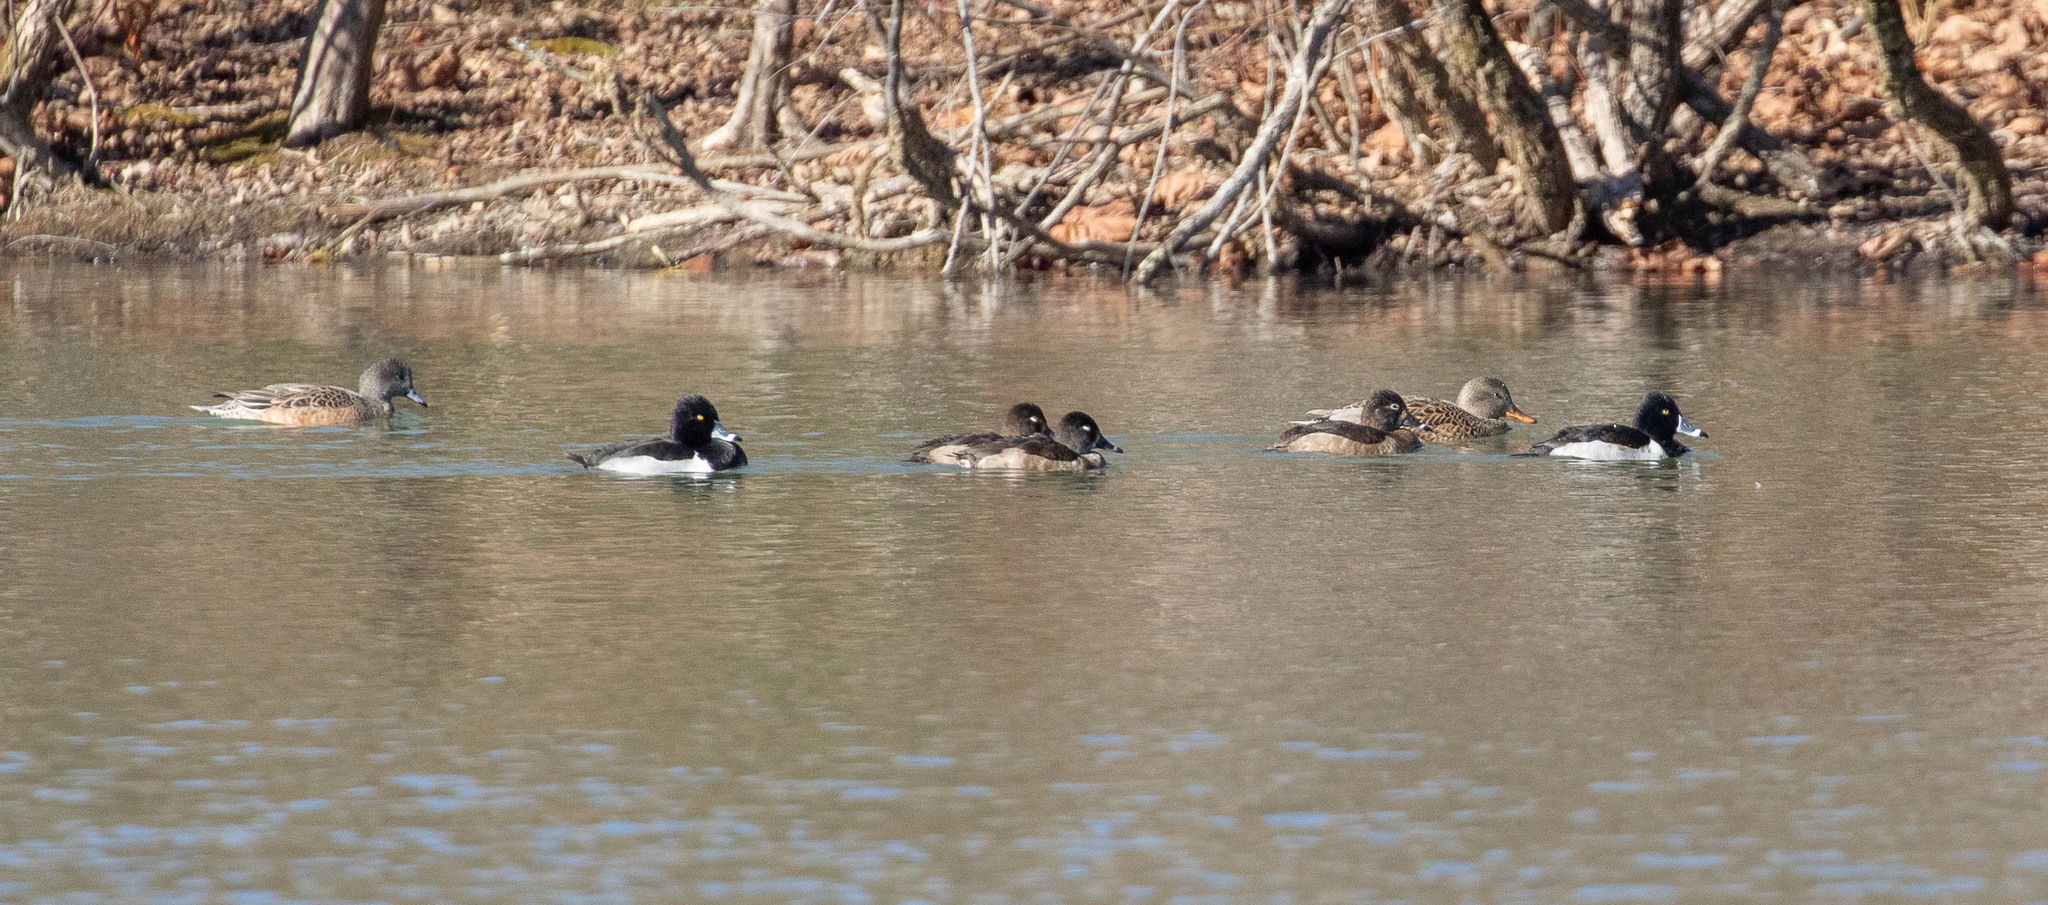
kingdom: Animalia
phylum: Chordata
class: Aves
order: Anseriformes
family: Anatidae
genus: Aythya
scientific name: Aythya collaris
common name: Ring-necked duck
